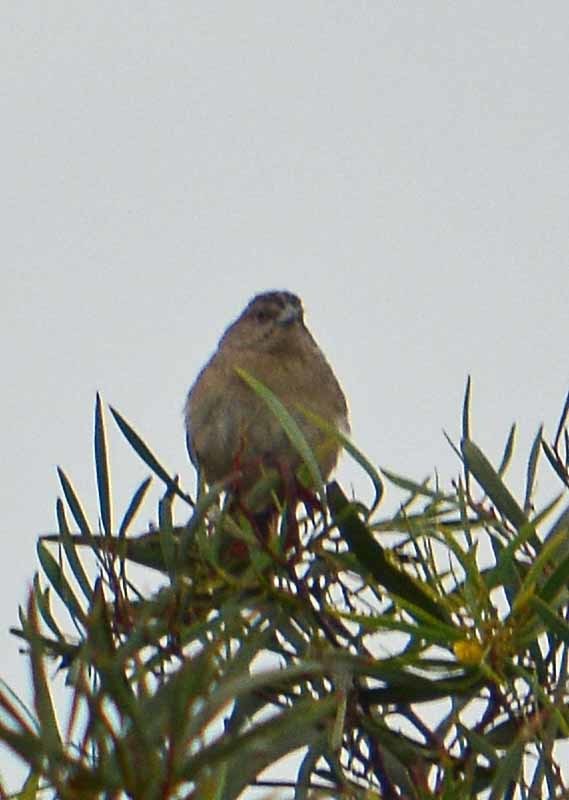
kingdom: Animalia
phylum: Chordata
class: Aves
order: Passeriformes
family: Passerellidae
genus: Ammodramus
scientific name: Ammodramus savannarum
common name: Grasshopper sparrow
